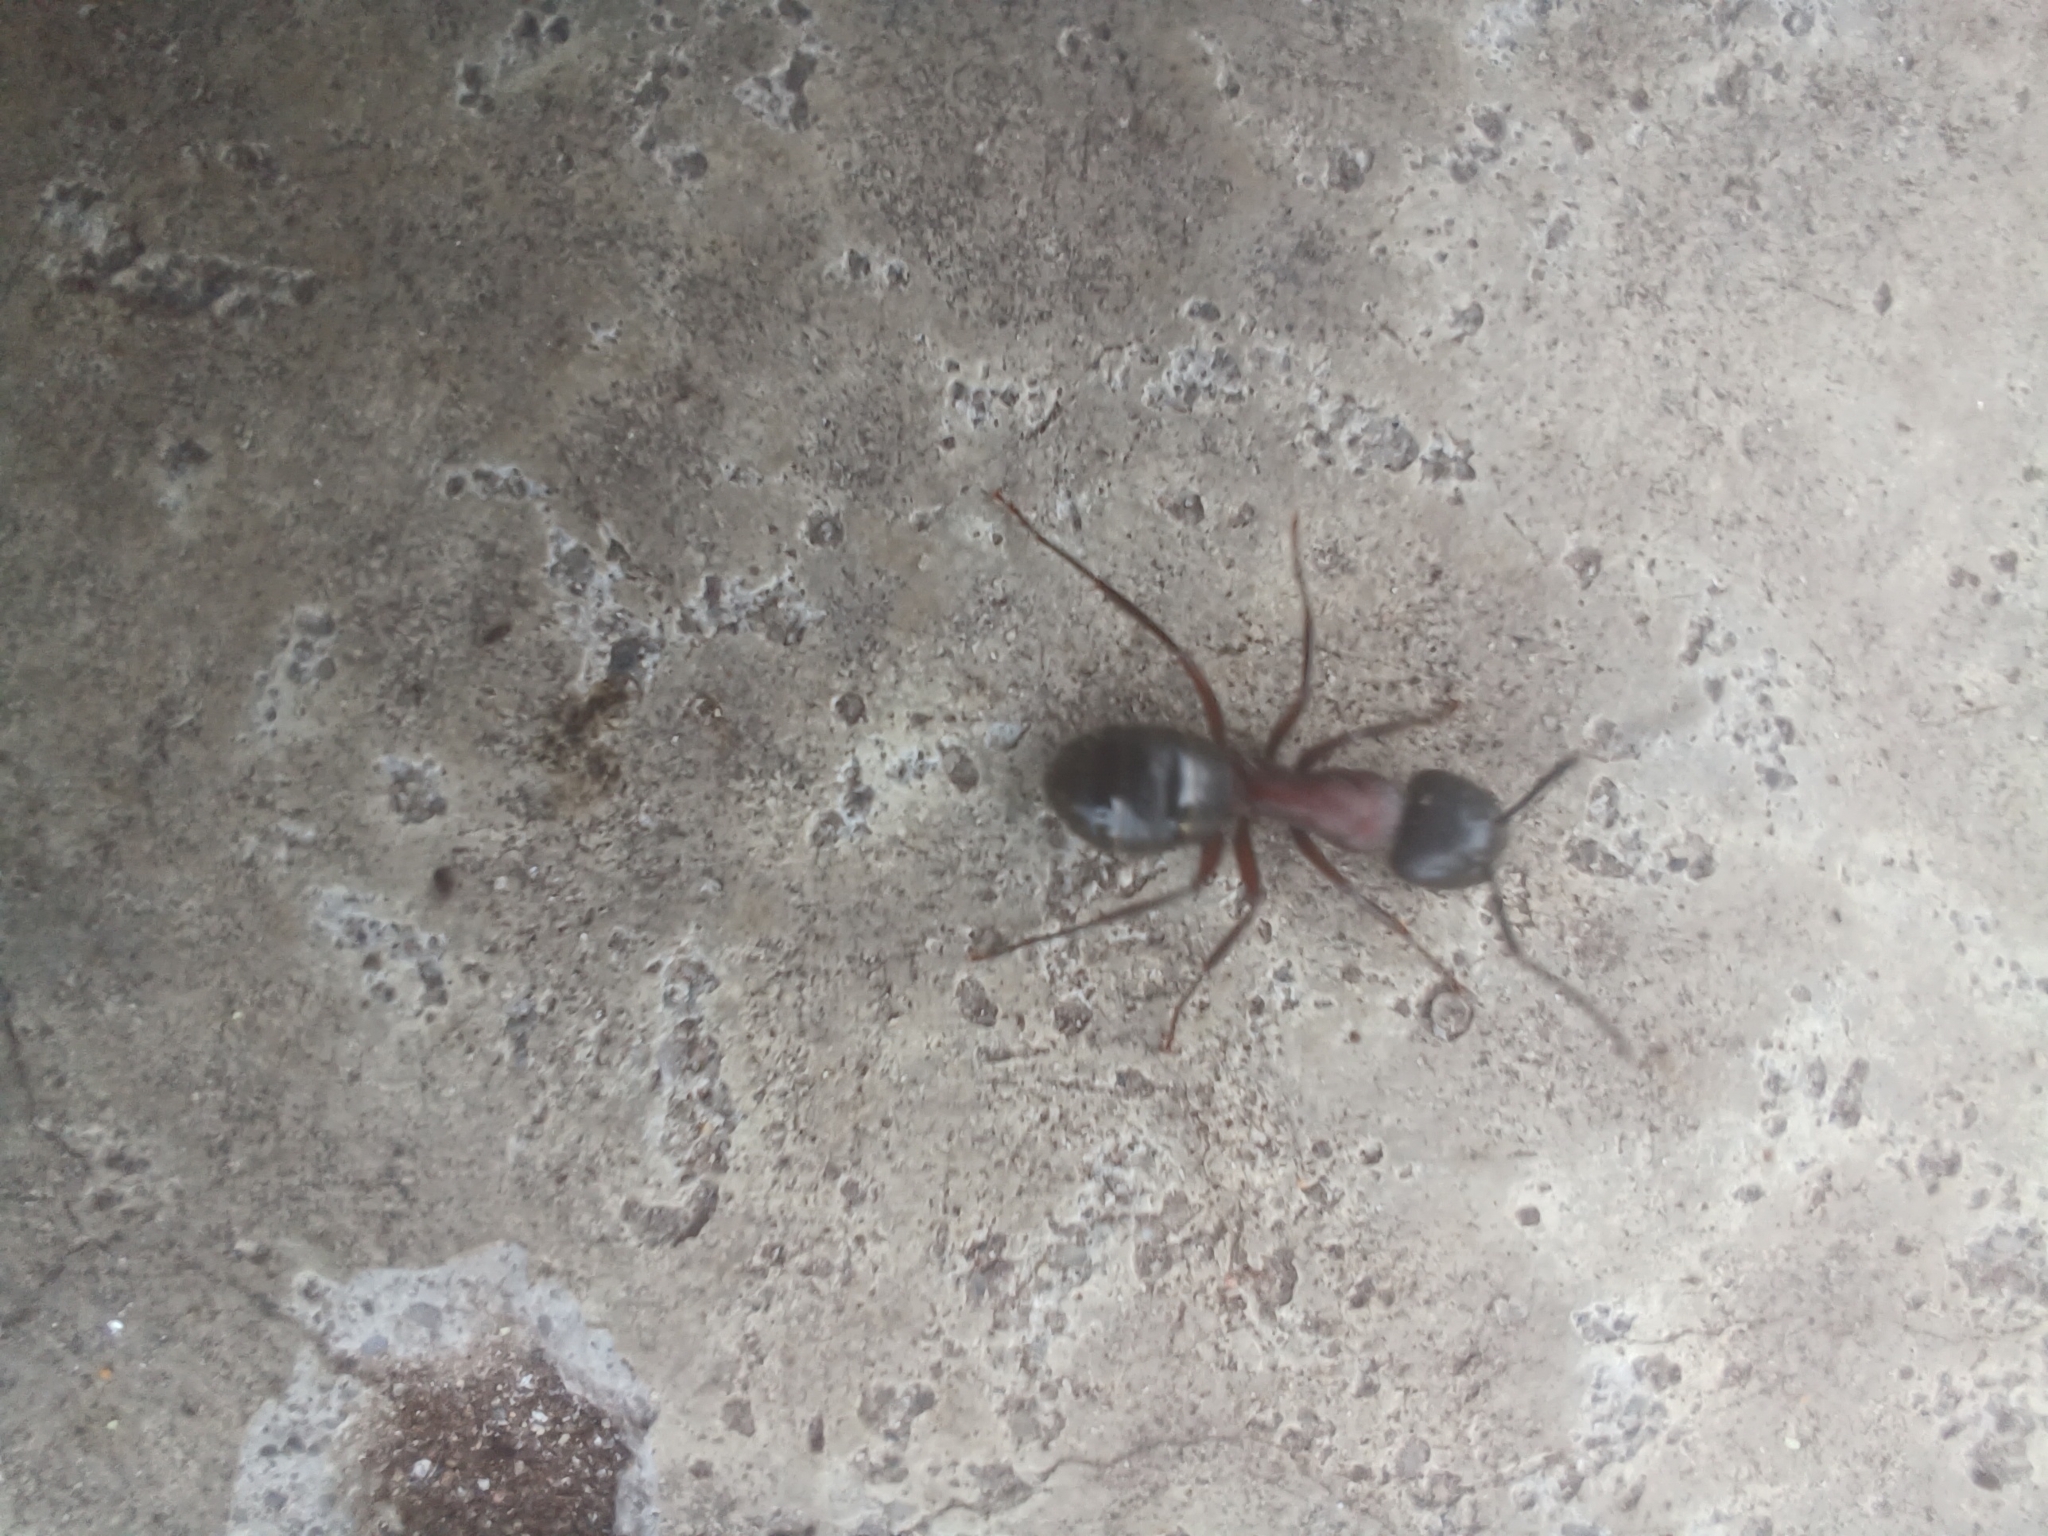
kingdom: Animalia
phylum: Arthropoda
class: Insecta
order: Hymenoptera
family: Formicidae
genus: Camponotus
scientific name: Camponotus novaeboracensis
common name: New york carpenter ant
